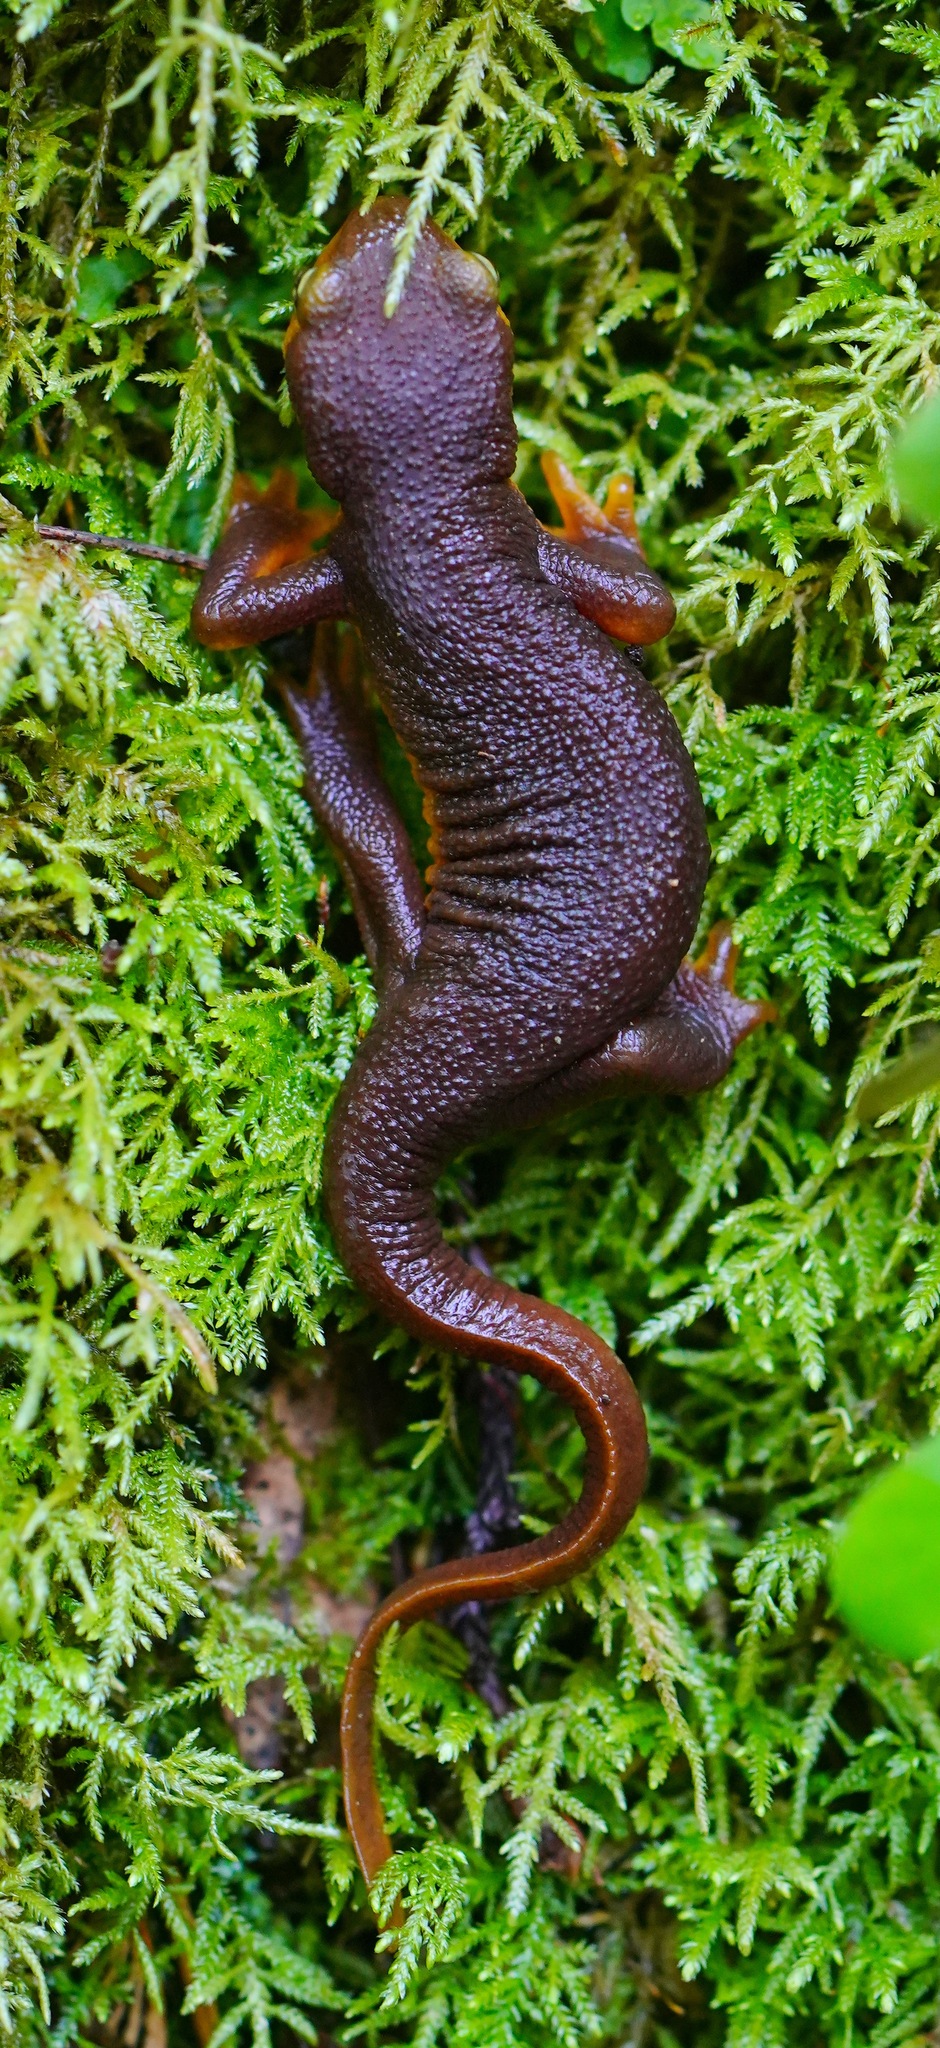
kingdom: Animalia
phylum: Chordata
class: Amphibia
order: Caudata
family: Salamandridae
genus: Taricha
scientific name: Taricha torosa
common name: California newt
